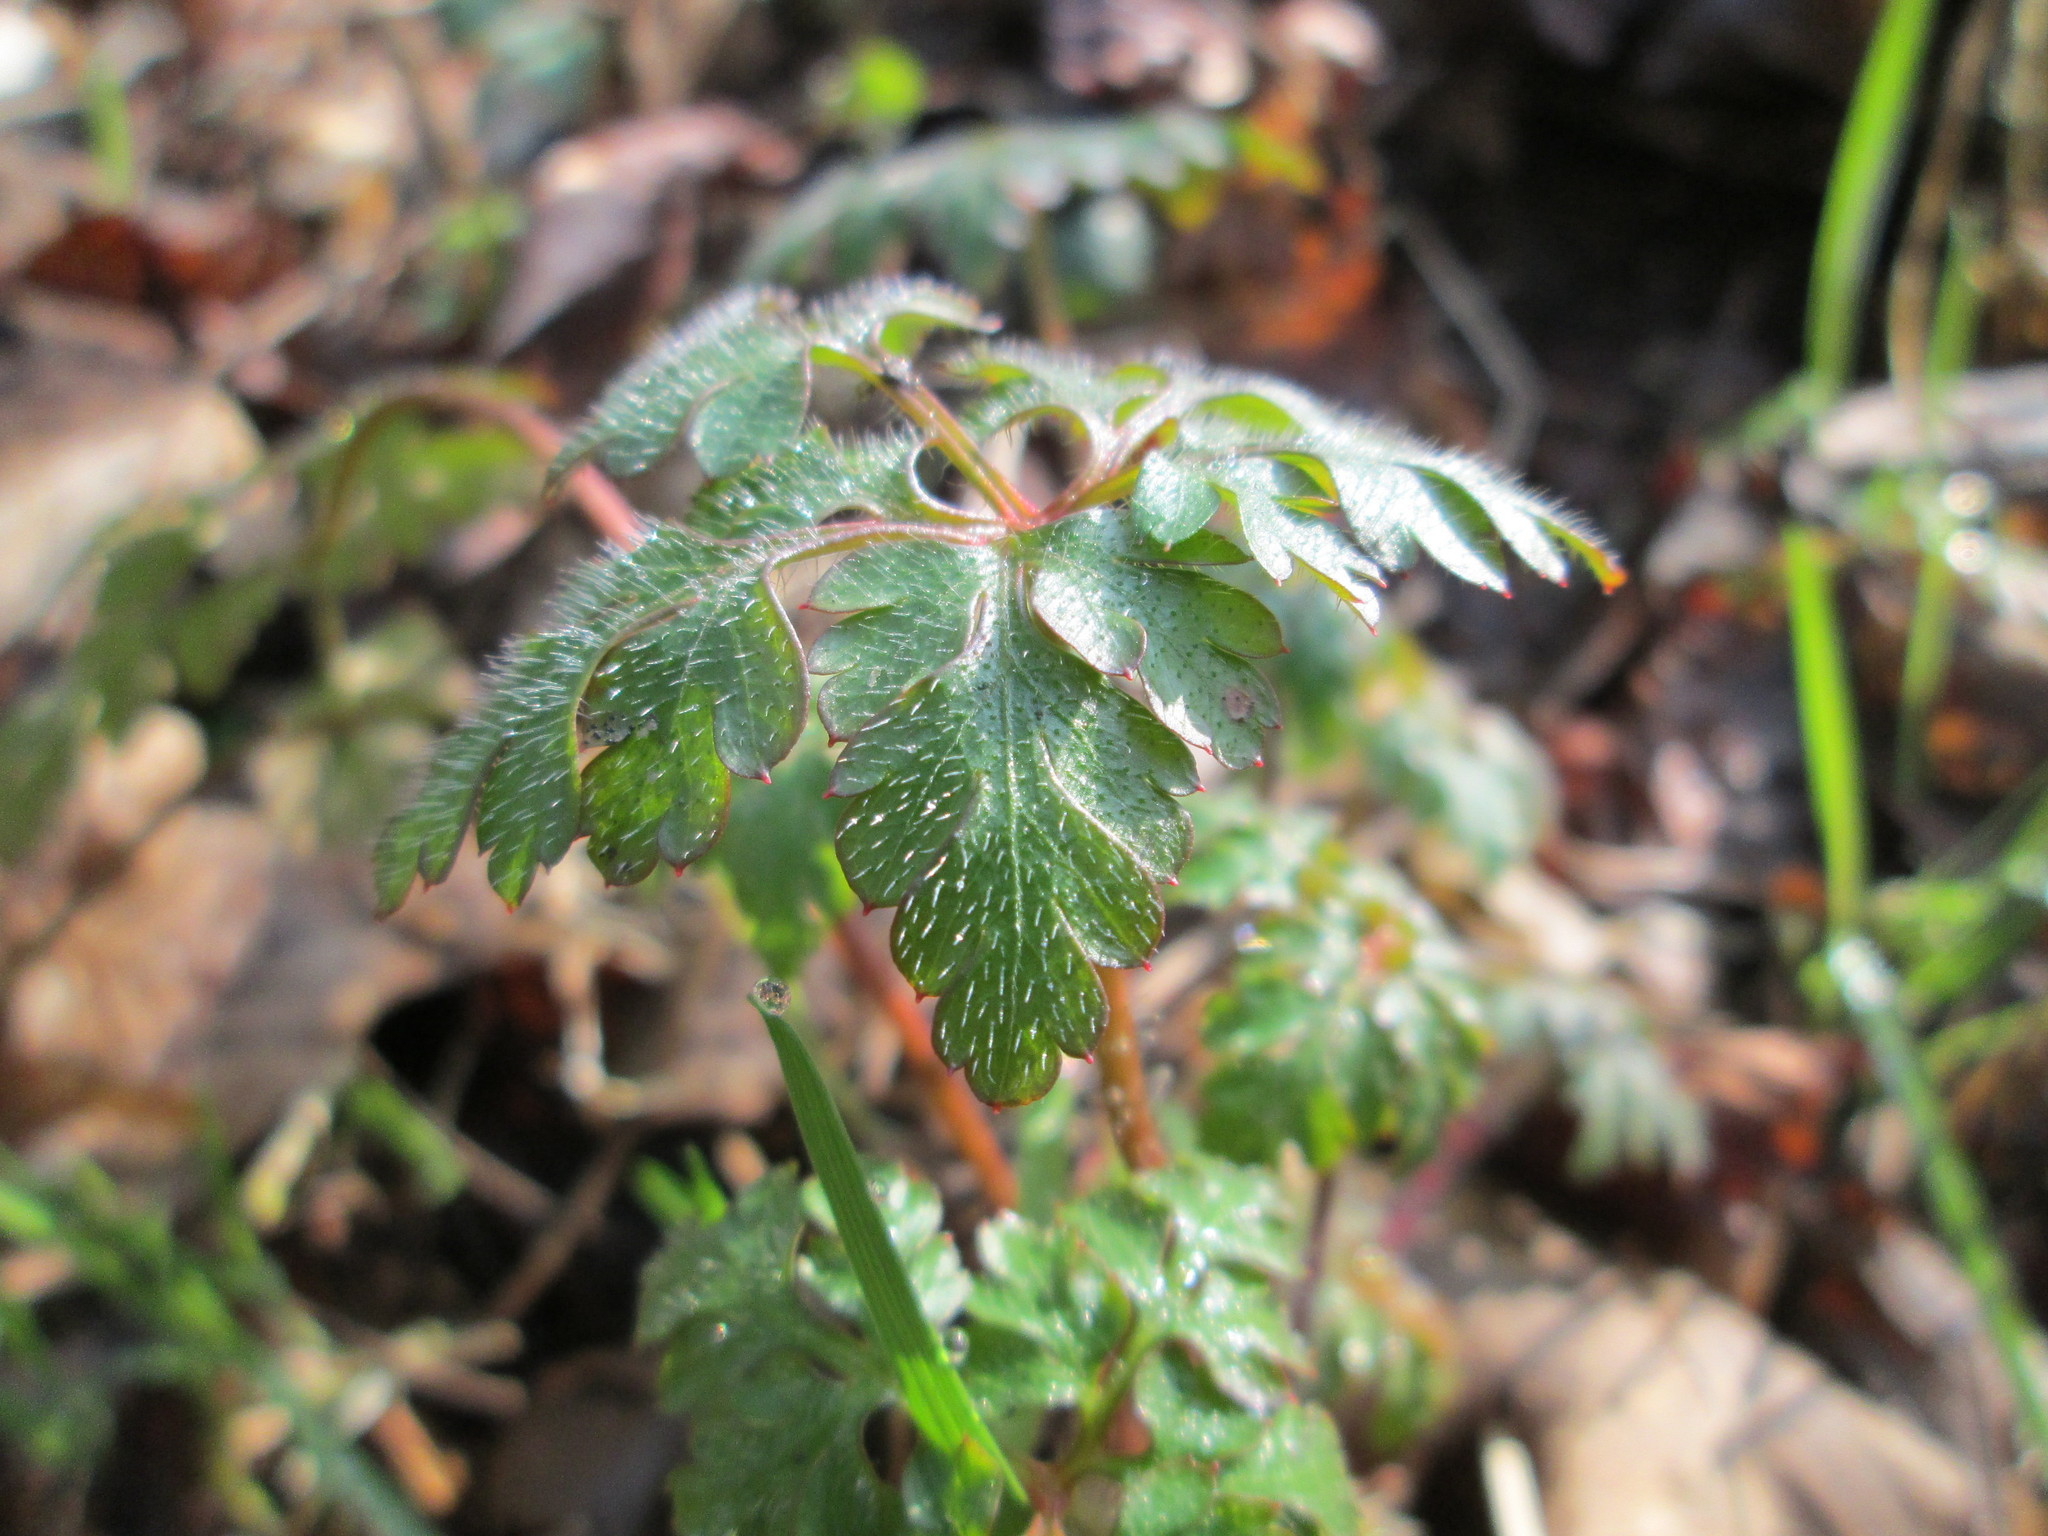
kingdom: Plantae
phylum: Tracheophyta
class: Magnoliopsida
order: Geraniales
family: Geraniaceae
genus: Geranium
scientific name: Geranium robertianum
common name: Herb-robert
